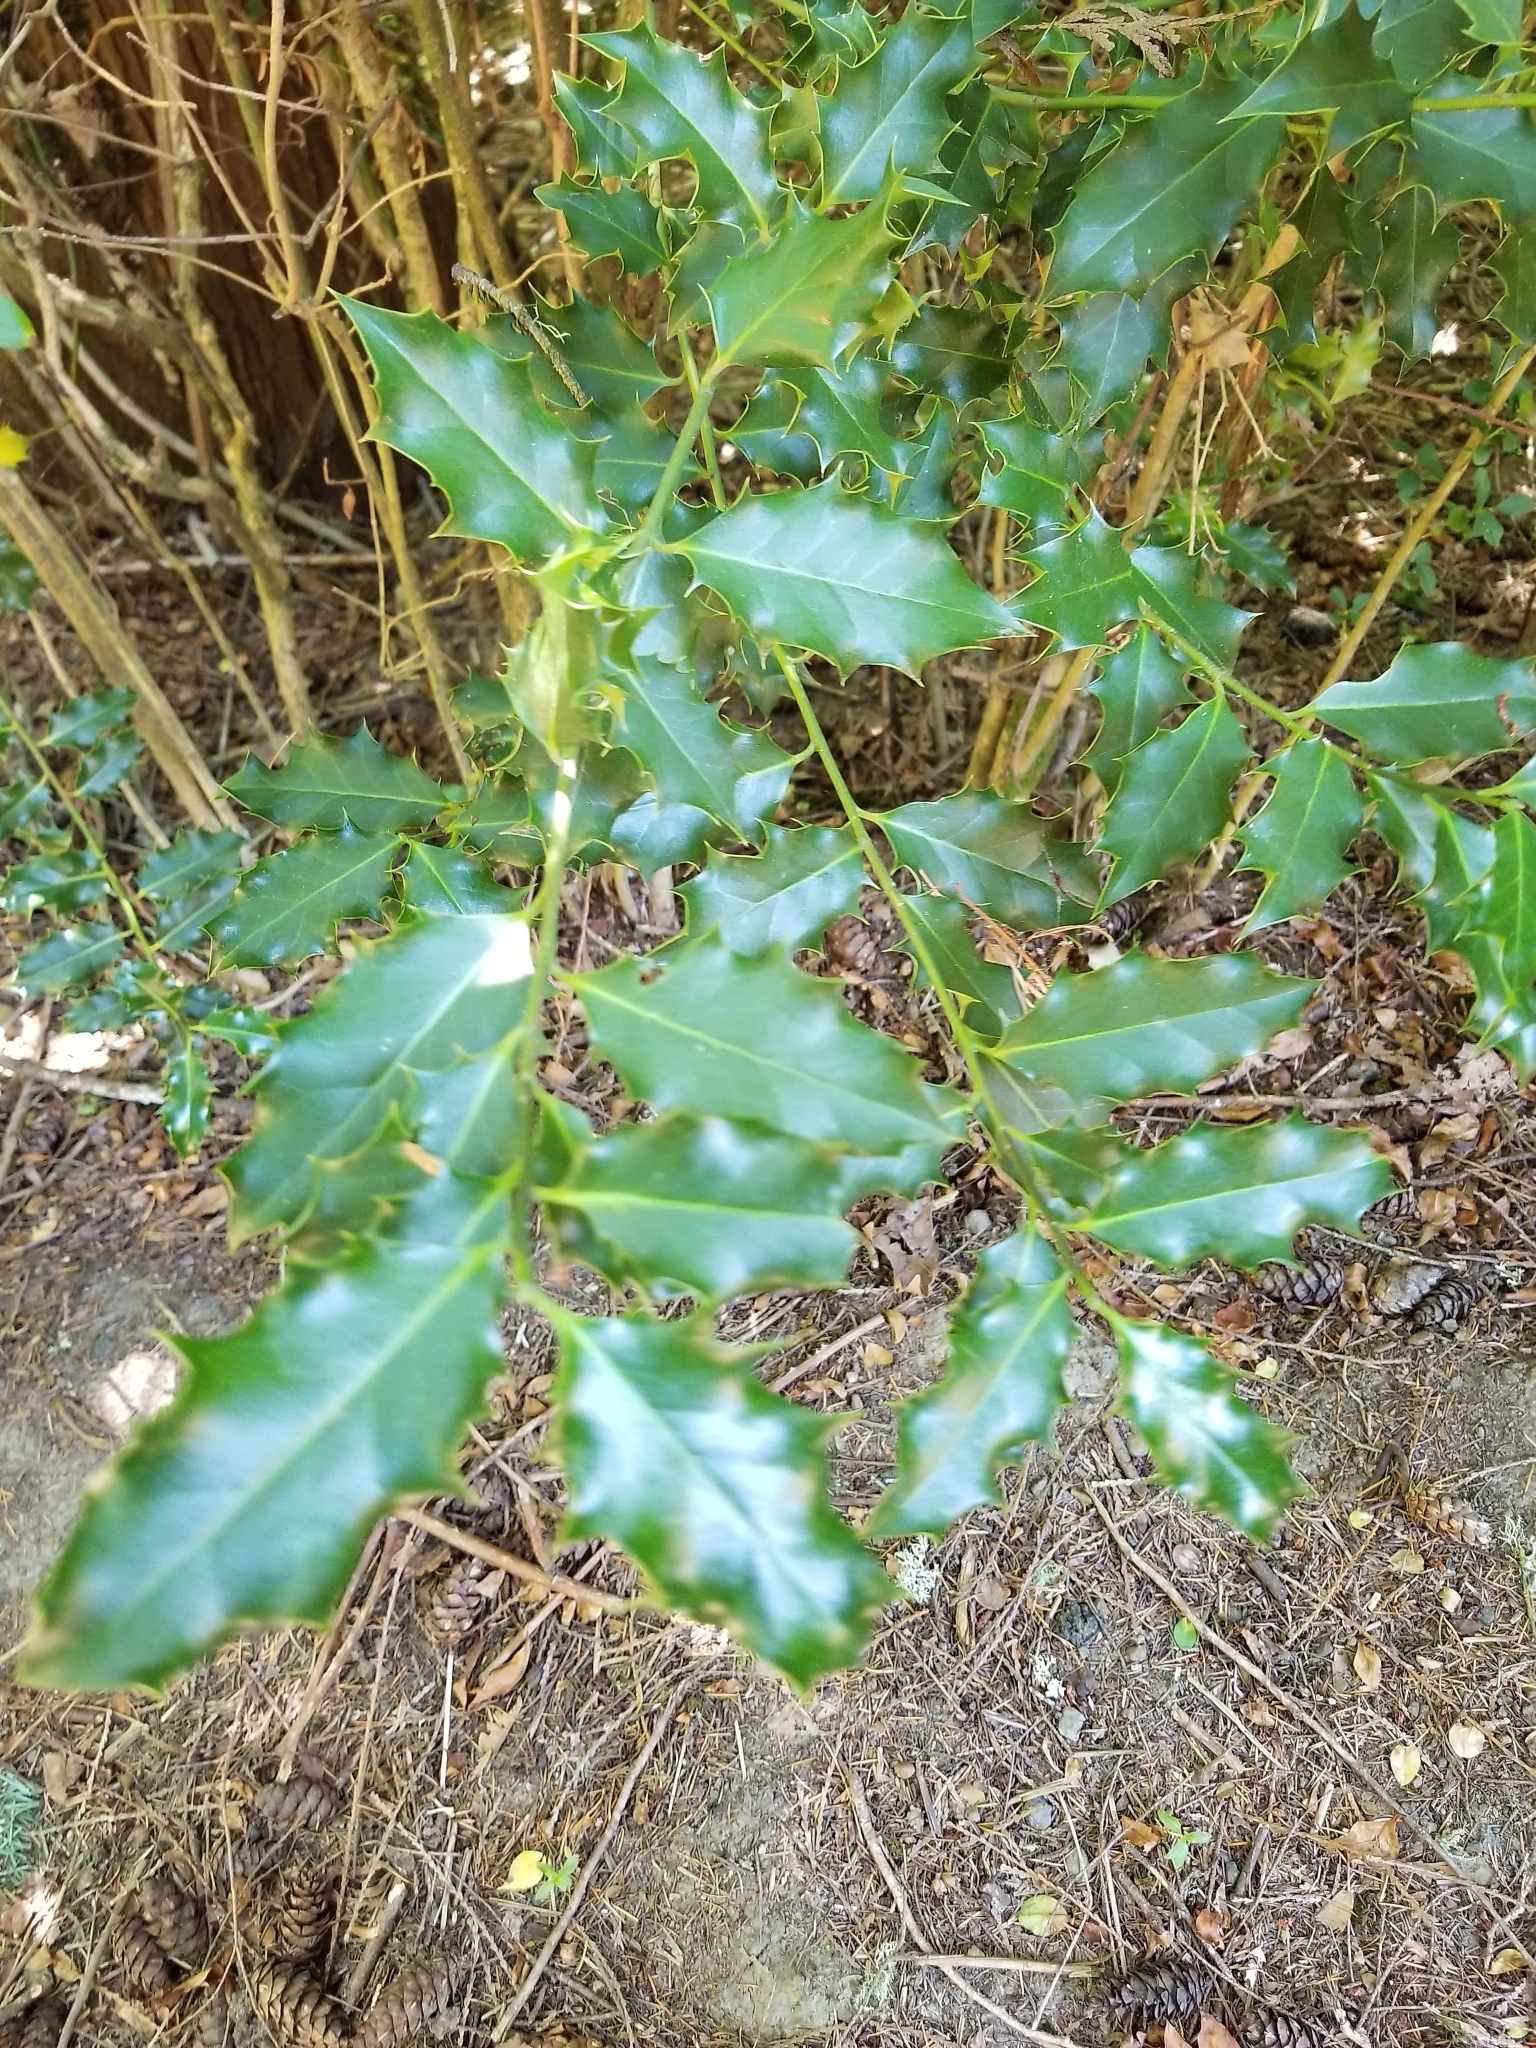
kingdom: Plantae
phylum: Tracheophyta
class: Magnoliopsida
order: Aquifoliales
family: Aquifoliaceae
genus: Ilex
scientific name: Ilex aquifolium
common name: English holly
